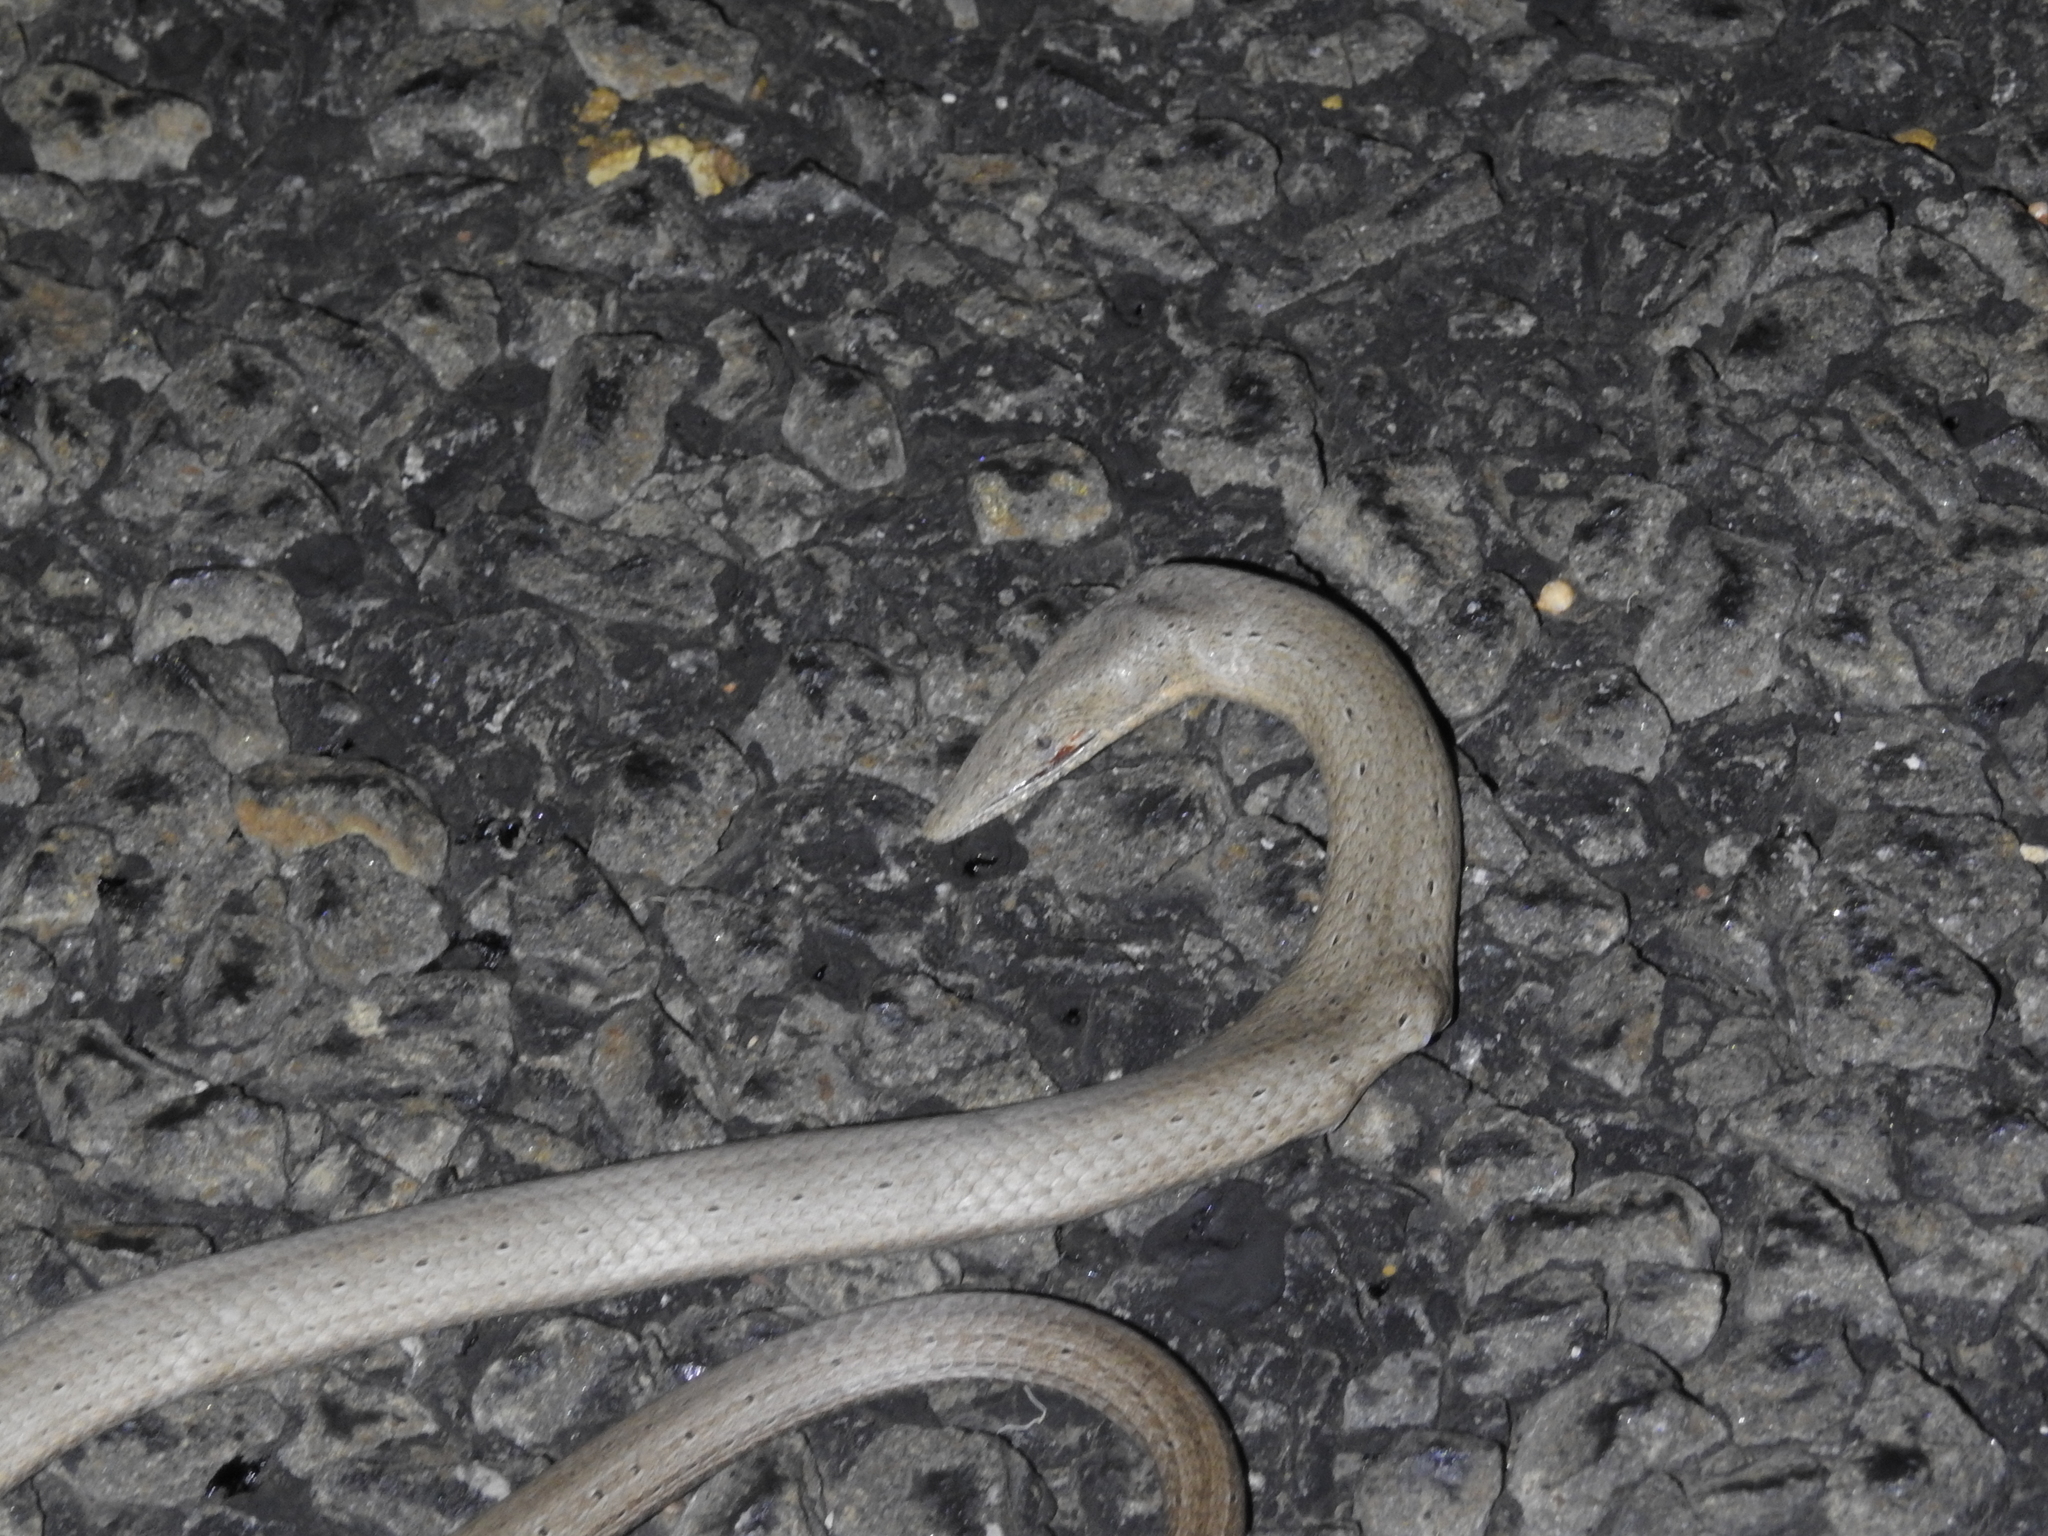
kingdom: Animalia
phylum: Chordata
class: Squamata
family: Pygopodidae
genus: Lialis
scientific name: Lialis burtonis
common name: Burton's legless lizard
